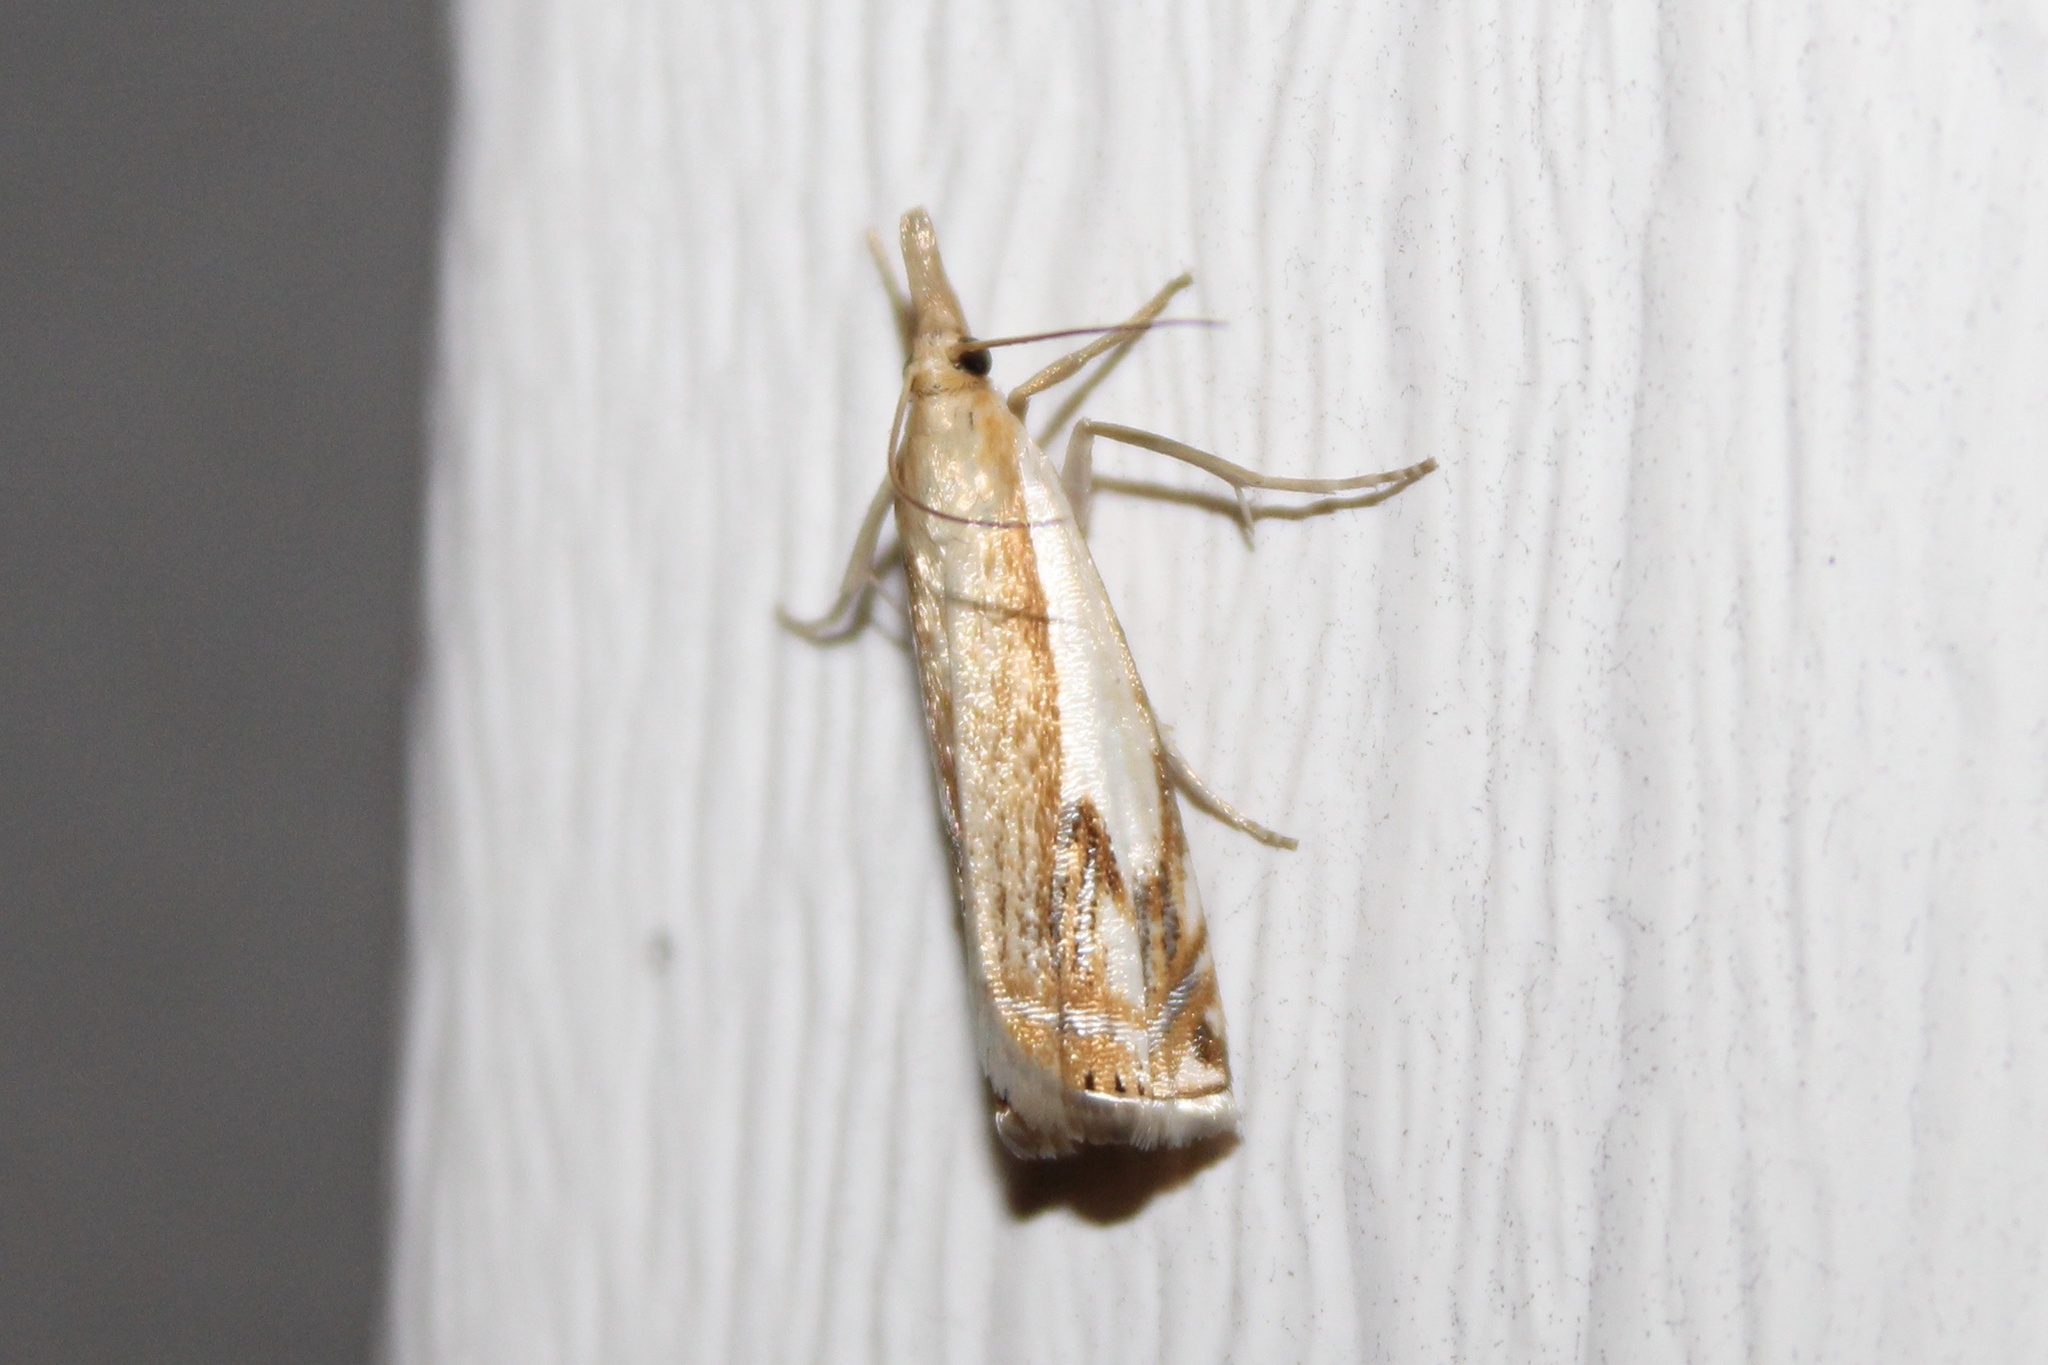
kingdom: Animalia
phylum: Arthropoda
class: Insecta
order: Lepidoptera
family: Crambidae
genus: Crambus
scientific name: Crambus agitatellus
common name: Double-banded grass-veneer
